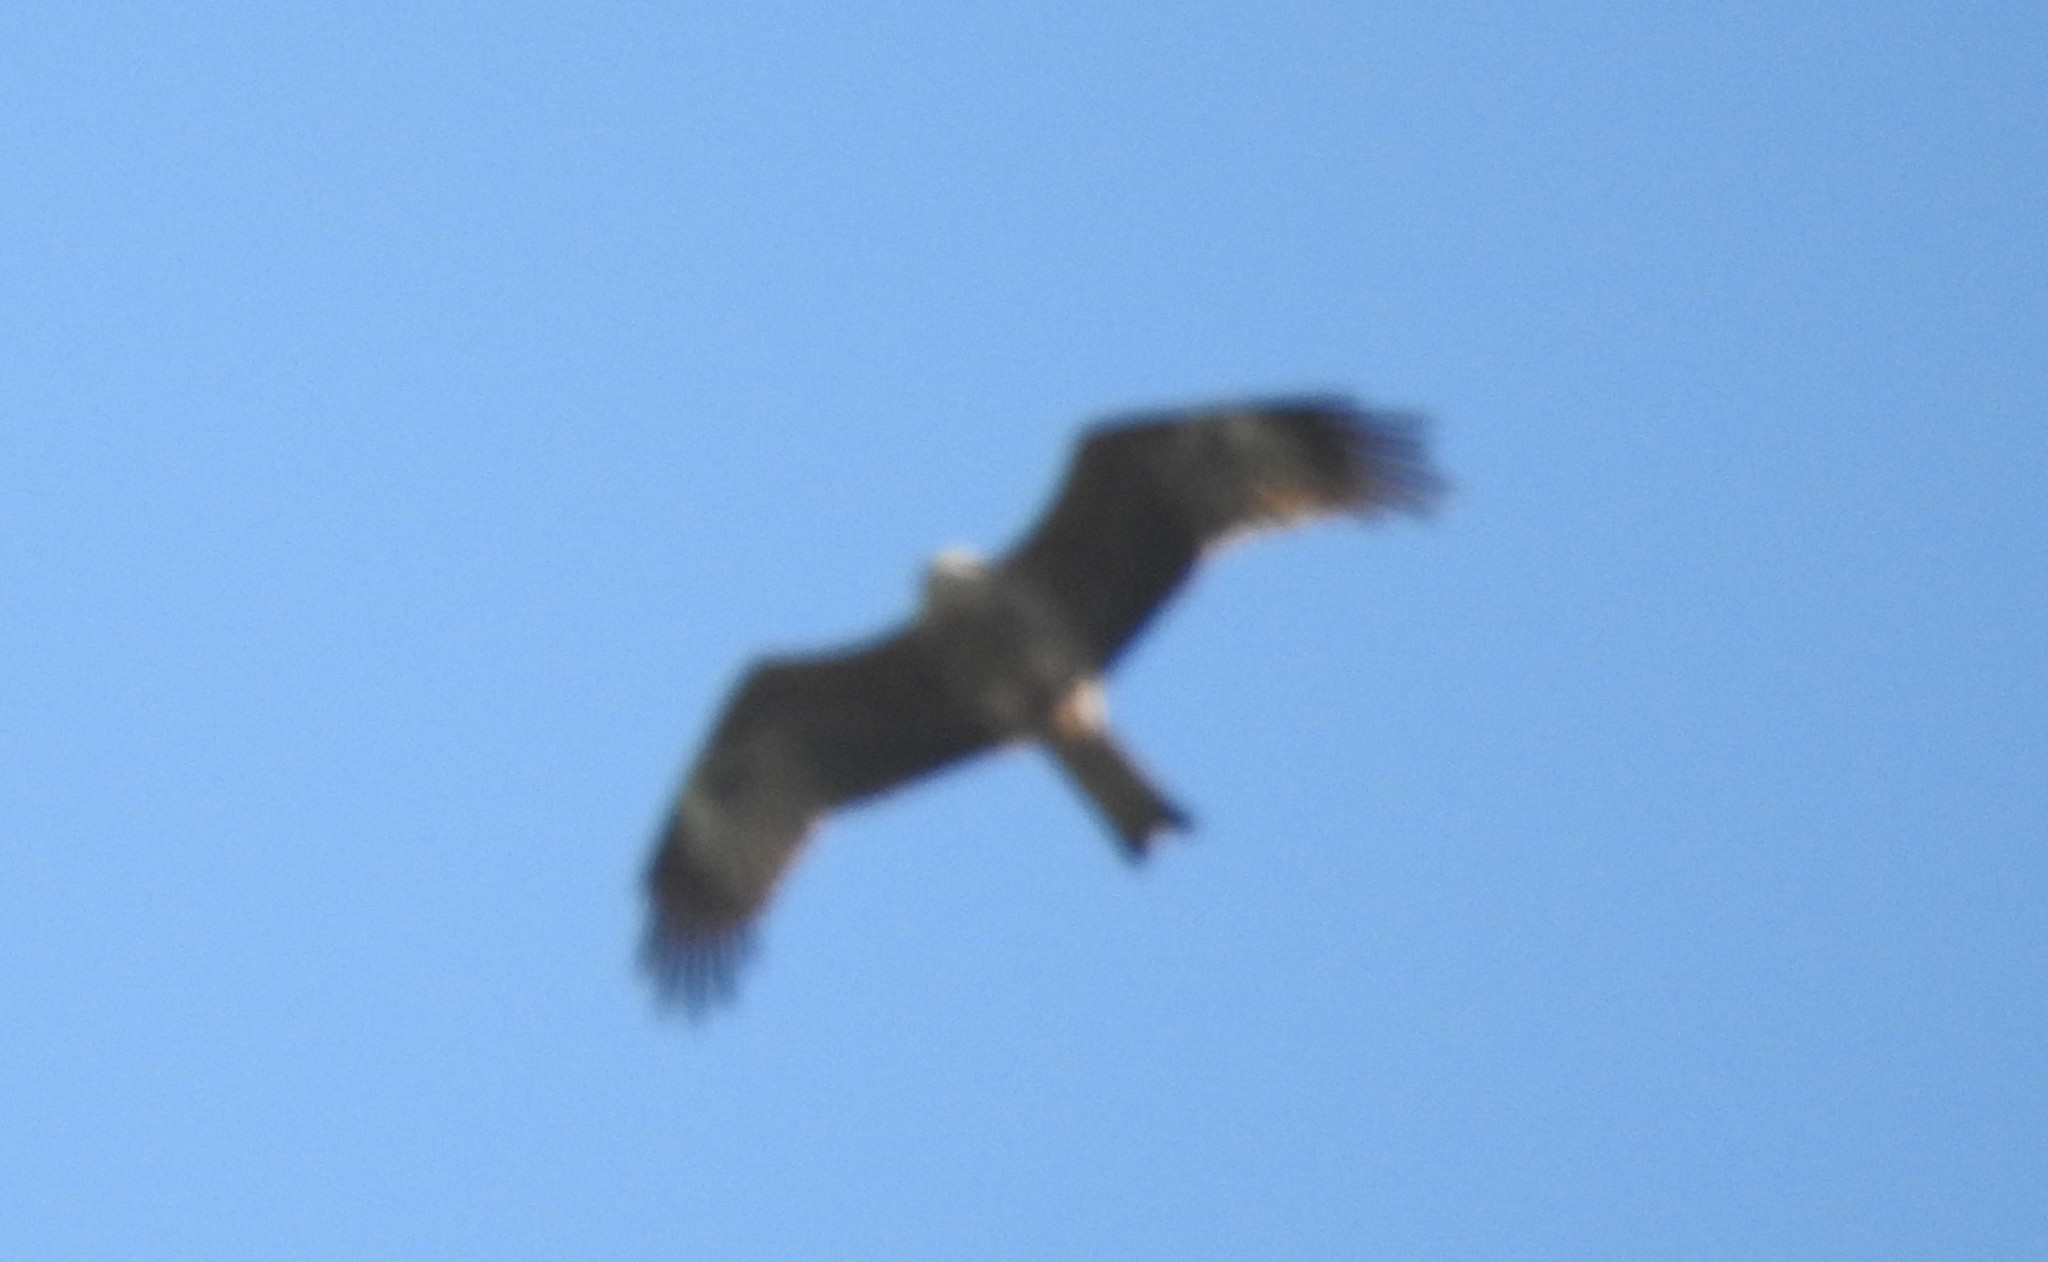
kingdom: Animalia
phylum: Chordata
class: Aves
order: Accipitriformes
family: Accipitridae
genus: Milvus
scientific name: Milvus migrans
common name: Black kite
